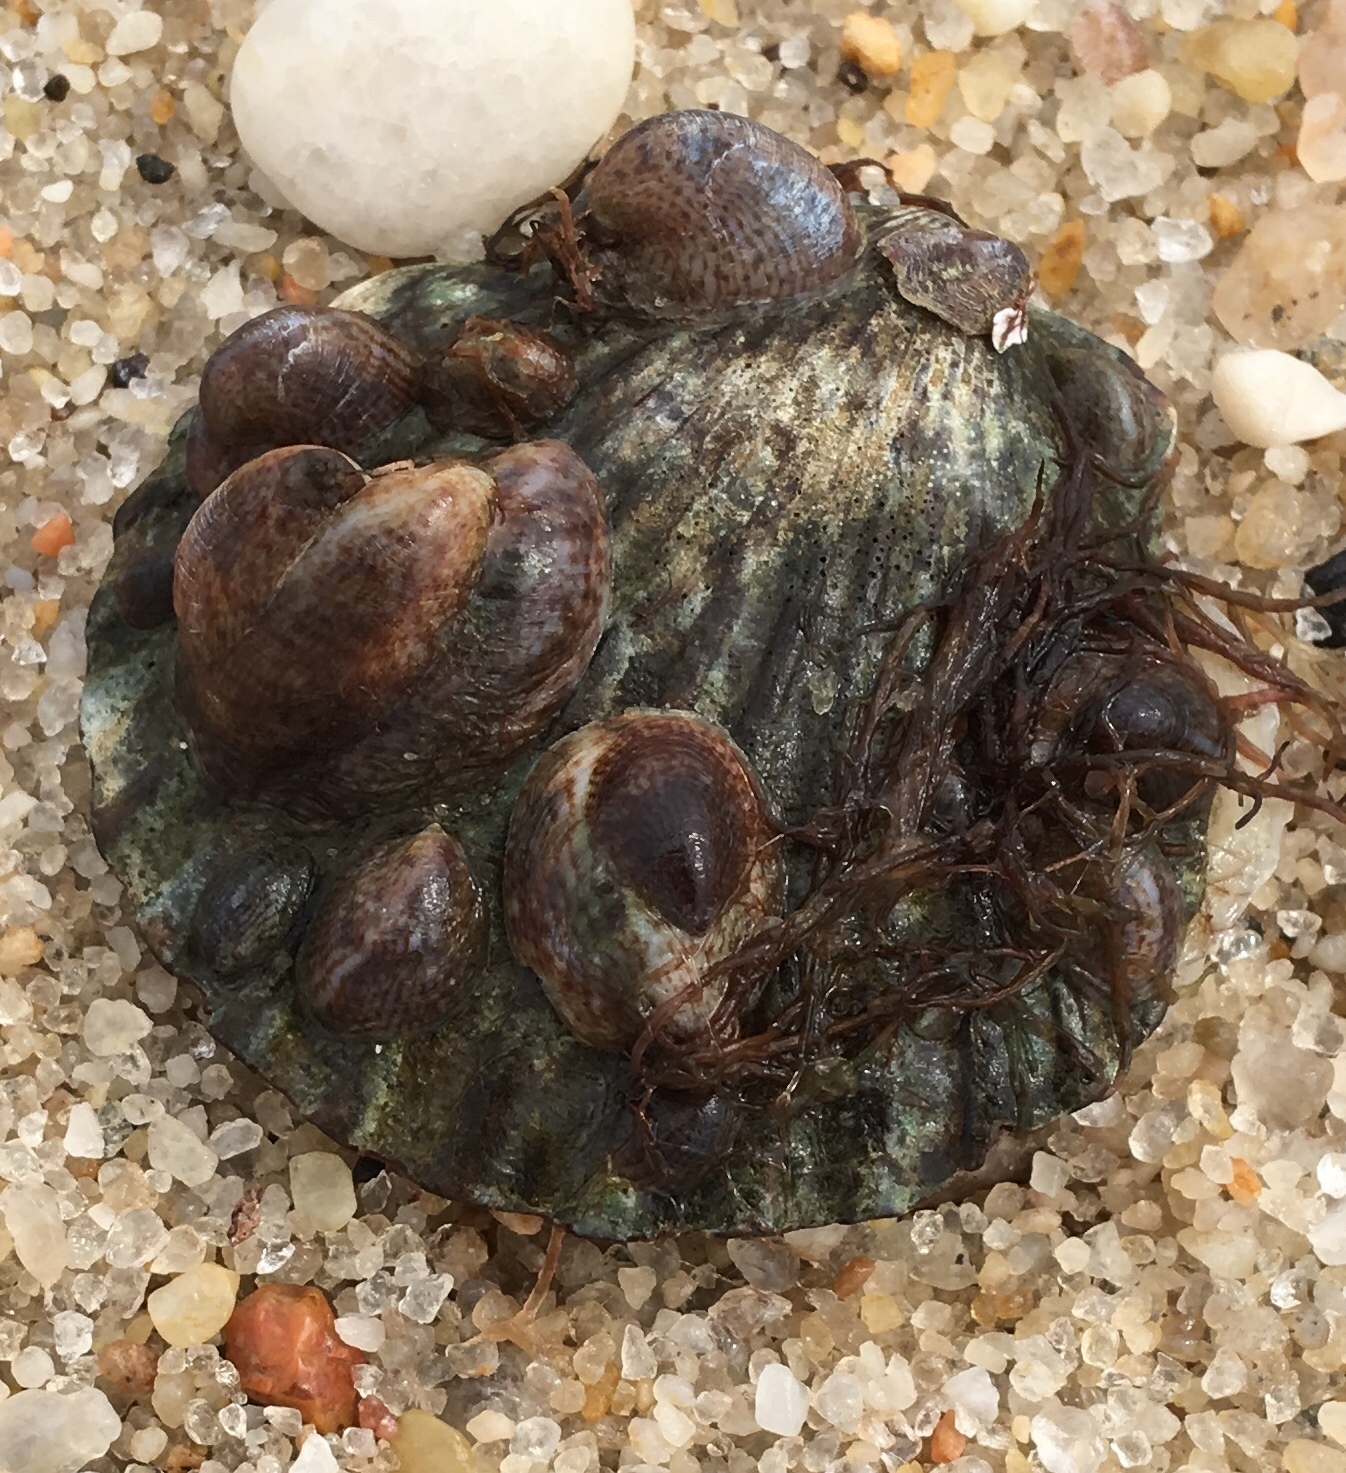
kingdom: Animalia
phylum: Mollusca
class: Gastropoda
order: Littorinimorpha
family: Calyptraeidae
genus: Crepidula
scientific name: Crepidula fornicata
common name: Slipper limpet
